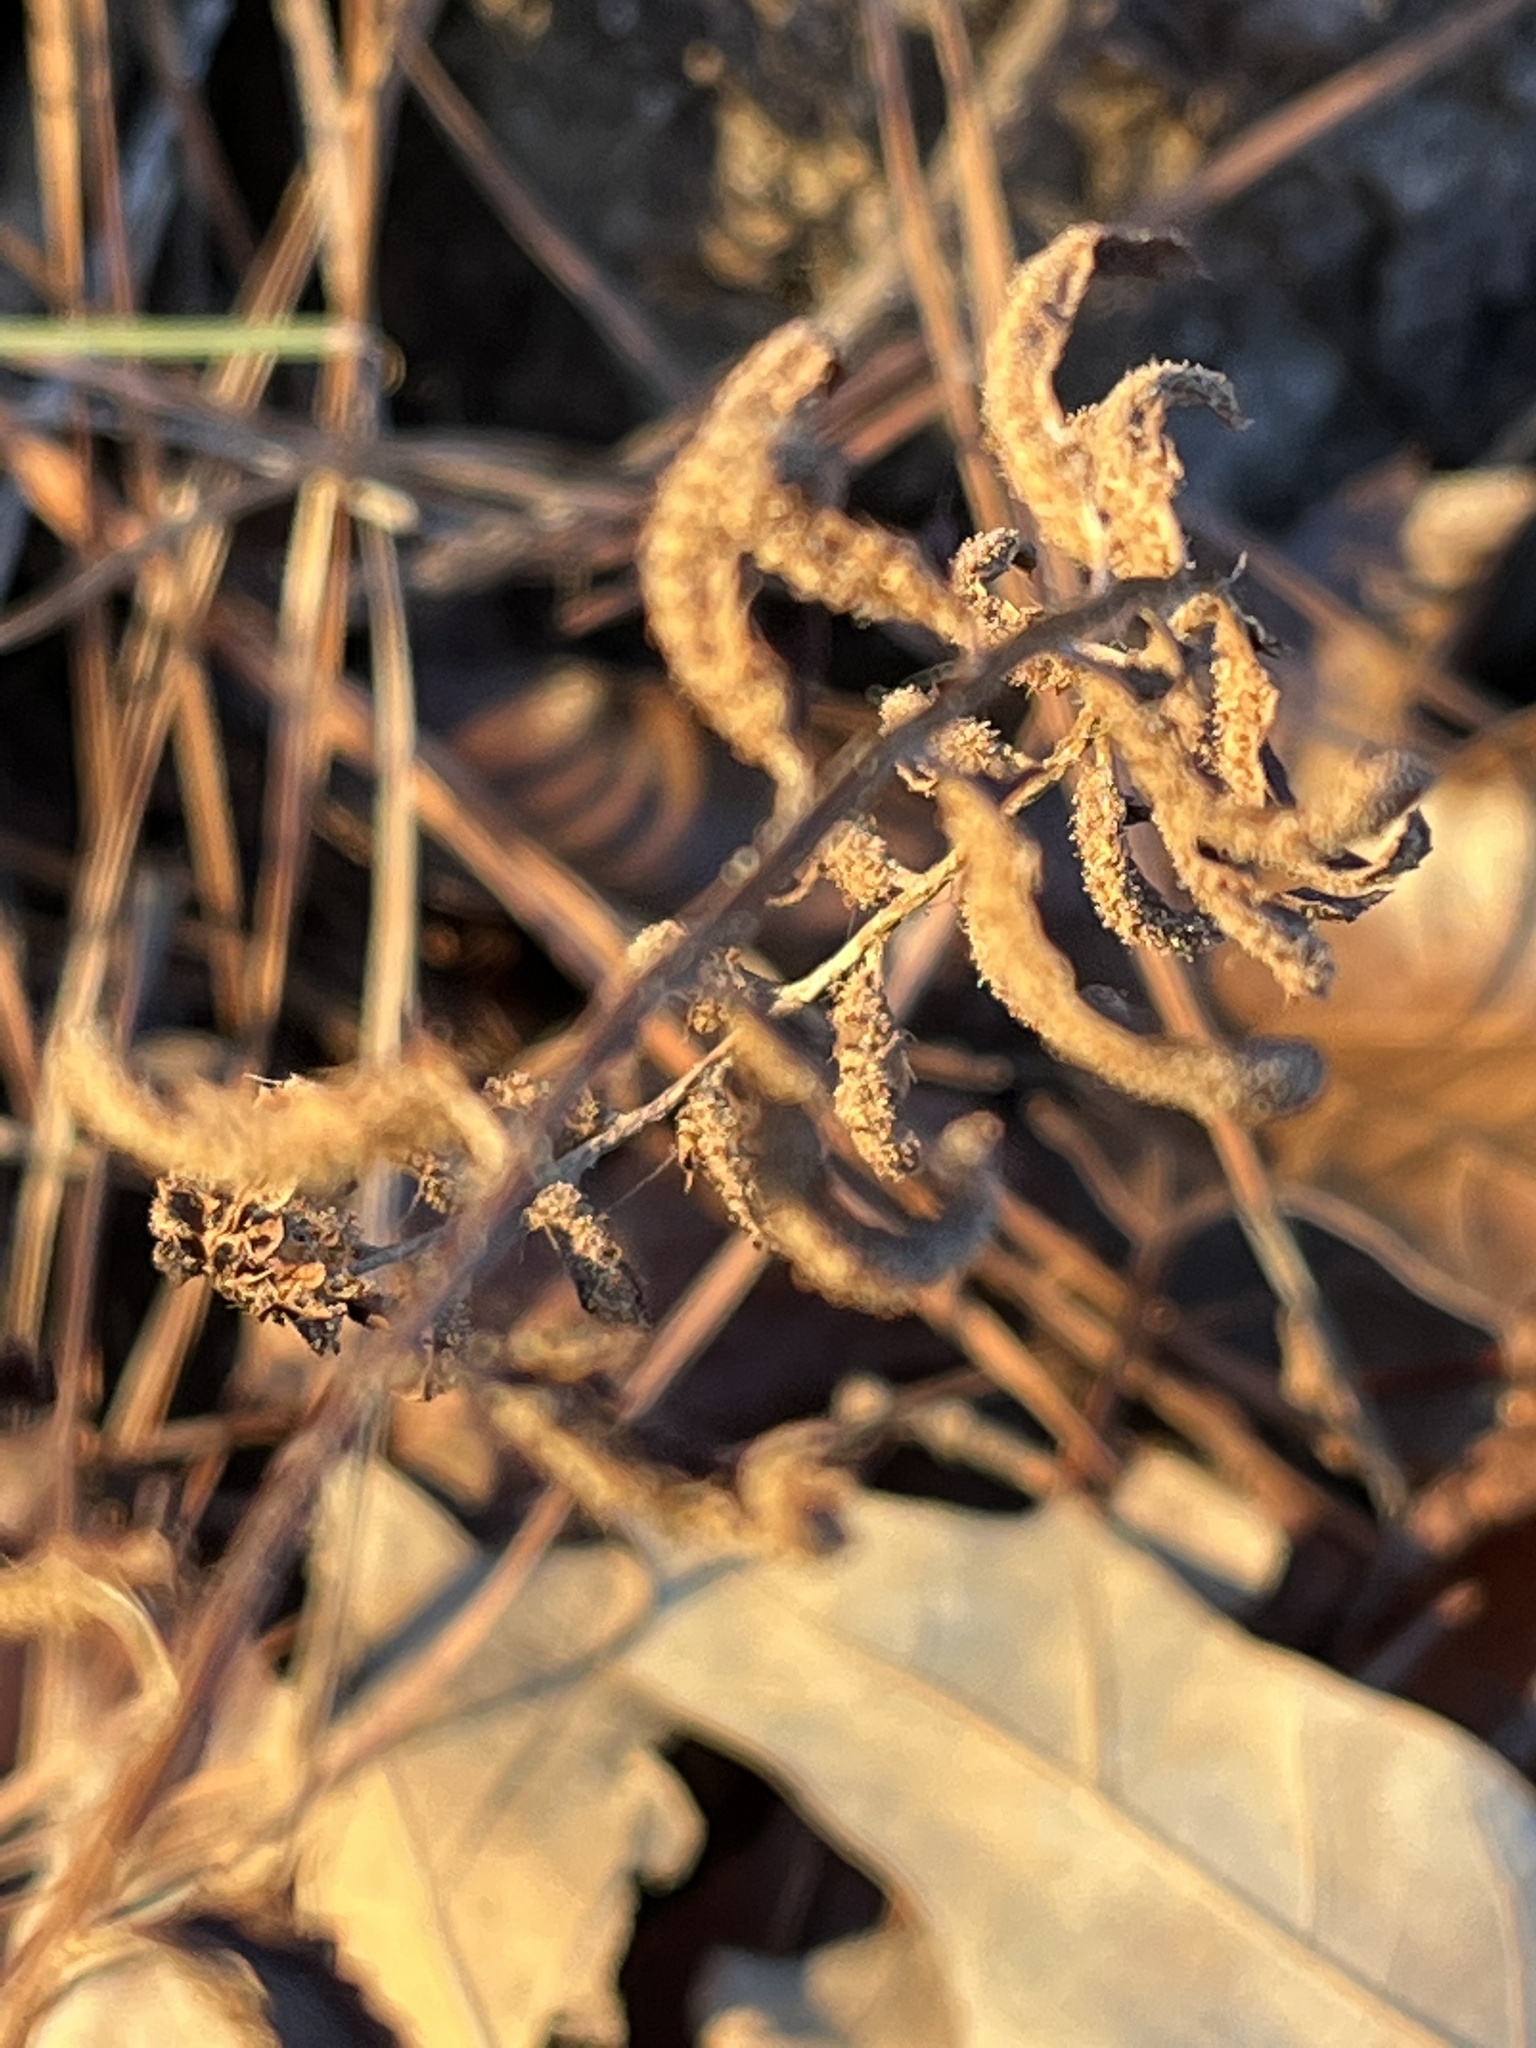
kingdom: Plantae
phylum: Tracheophyta
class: Polypodiopsida
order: Polypodiales
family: Dryopteridaceae
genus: Polystichum
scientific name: Polystichum acrostichoides
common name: Christmas fern
